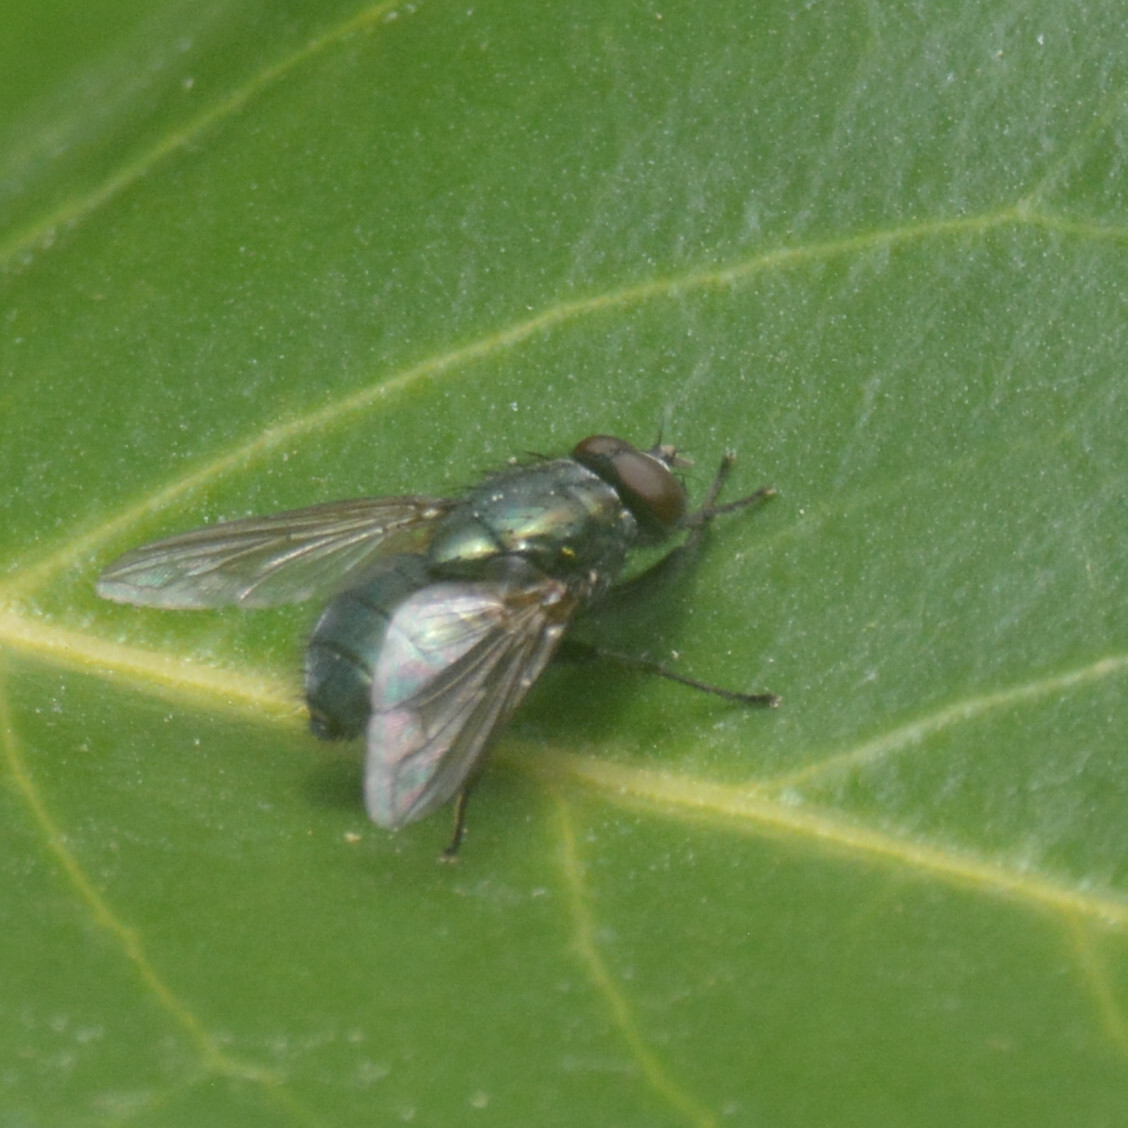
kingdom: Animalia
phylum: Arthropoda
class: Insecta
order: Diptera
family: Muscidae
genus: Dasyphora
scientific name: Dasyphora cyanella
